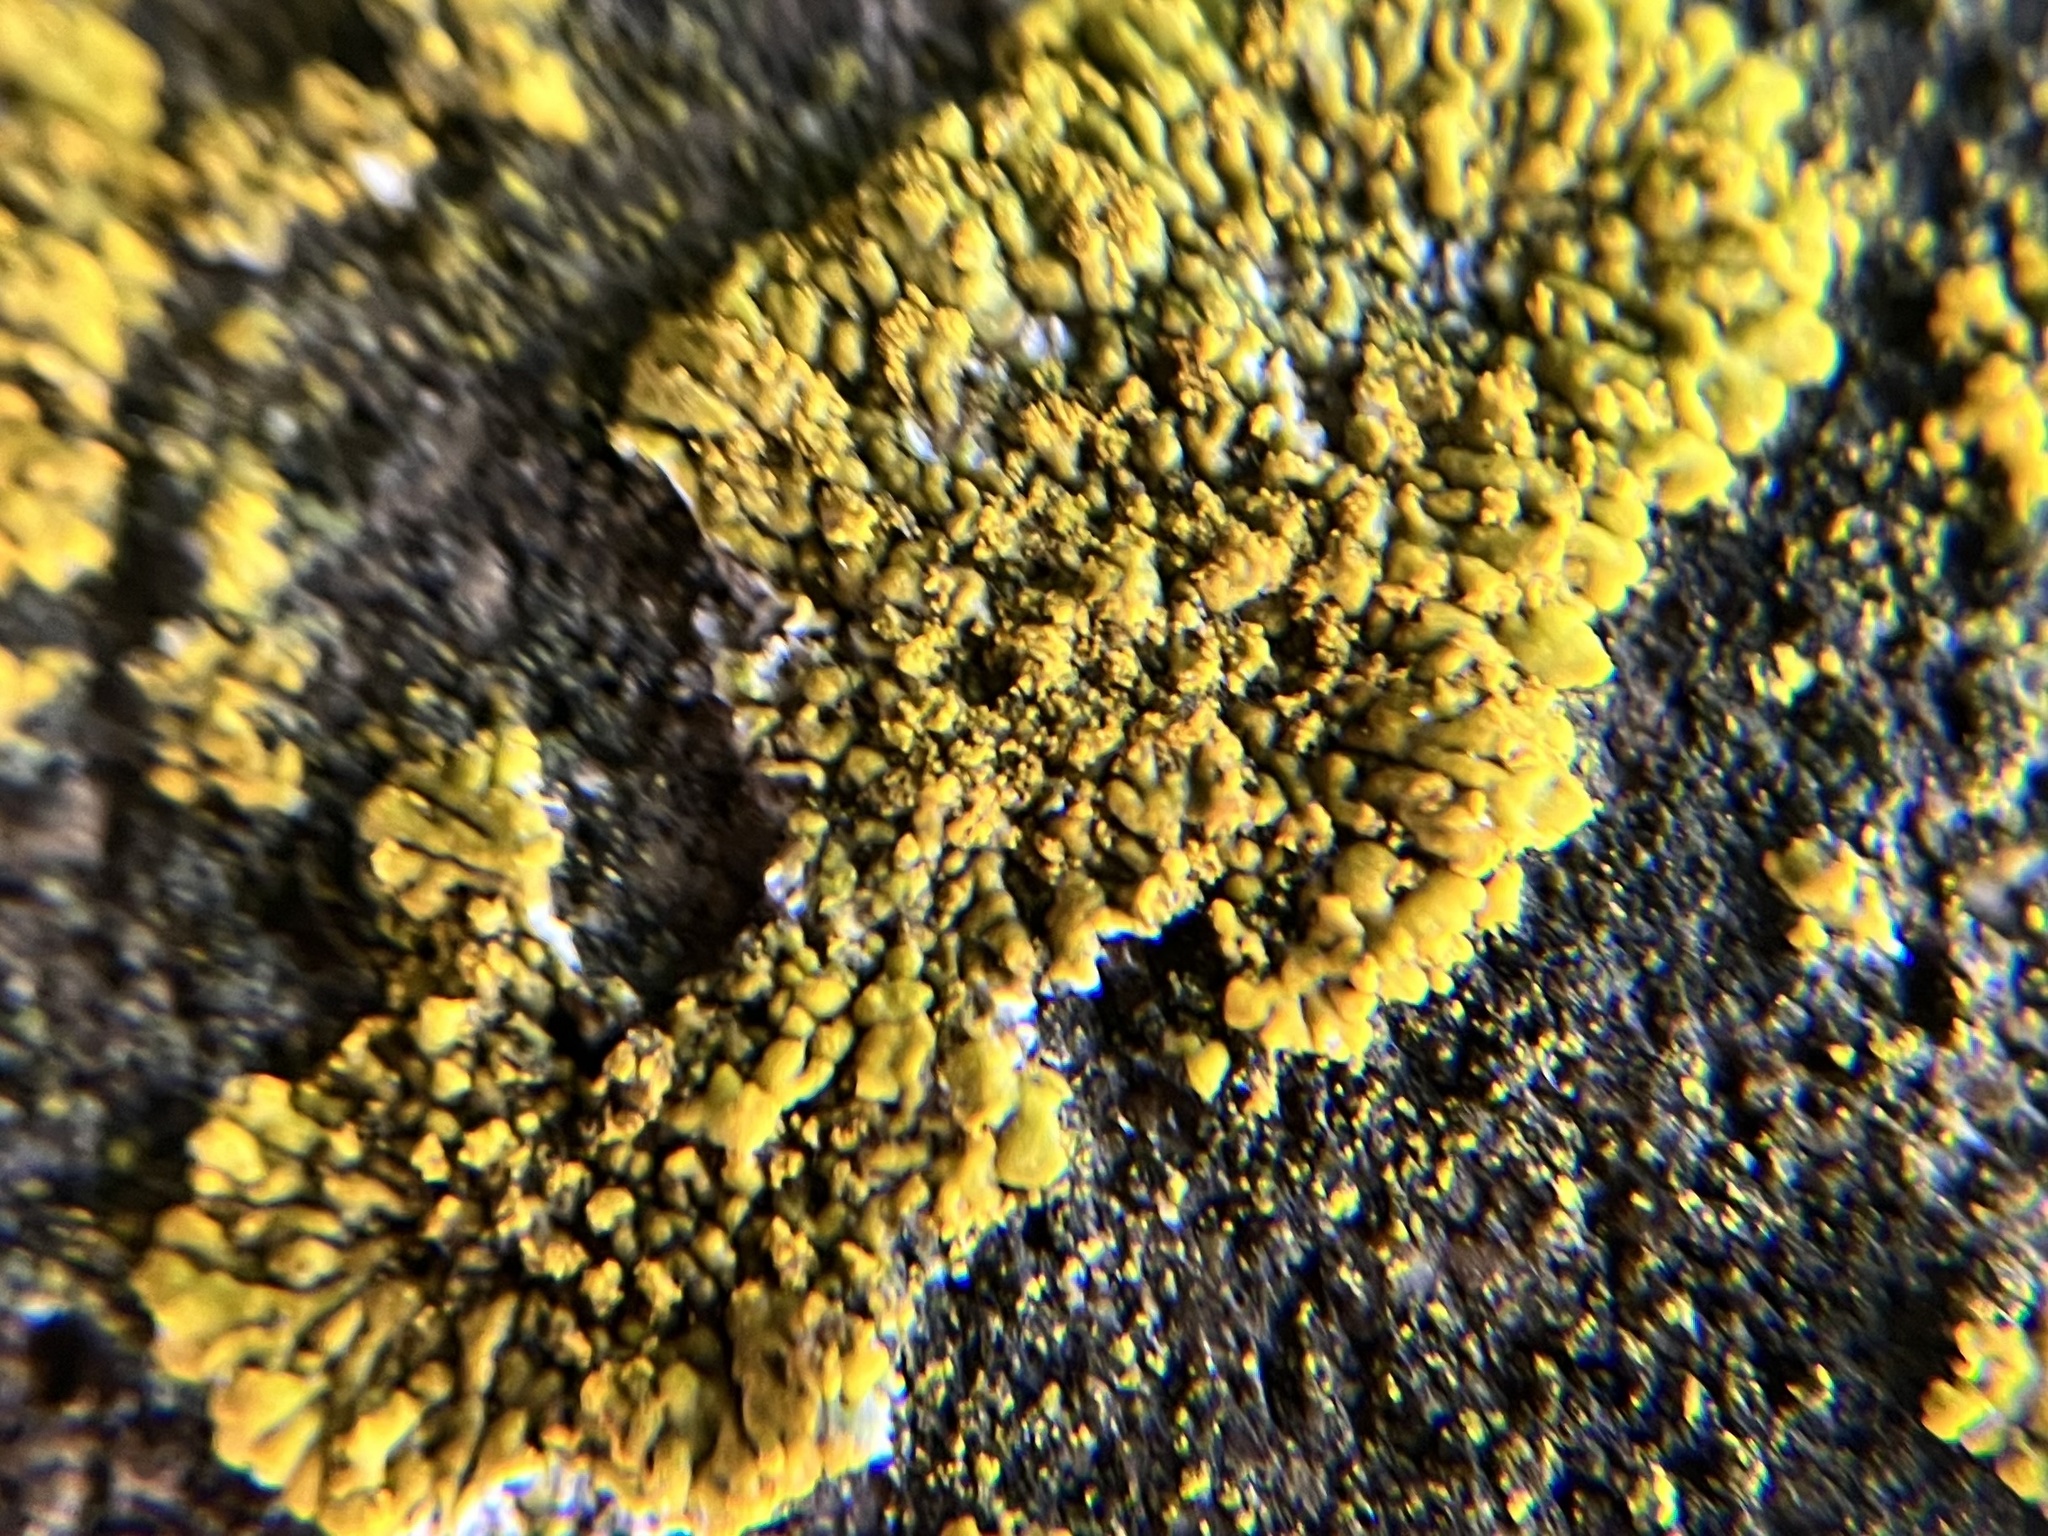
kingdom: Fungi
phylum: Ascomycota
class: Lecanoromycetes
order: Teloschistales
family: Teloschistaceae
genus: Calogaya
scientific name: Calogaya decipiens
